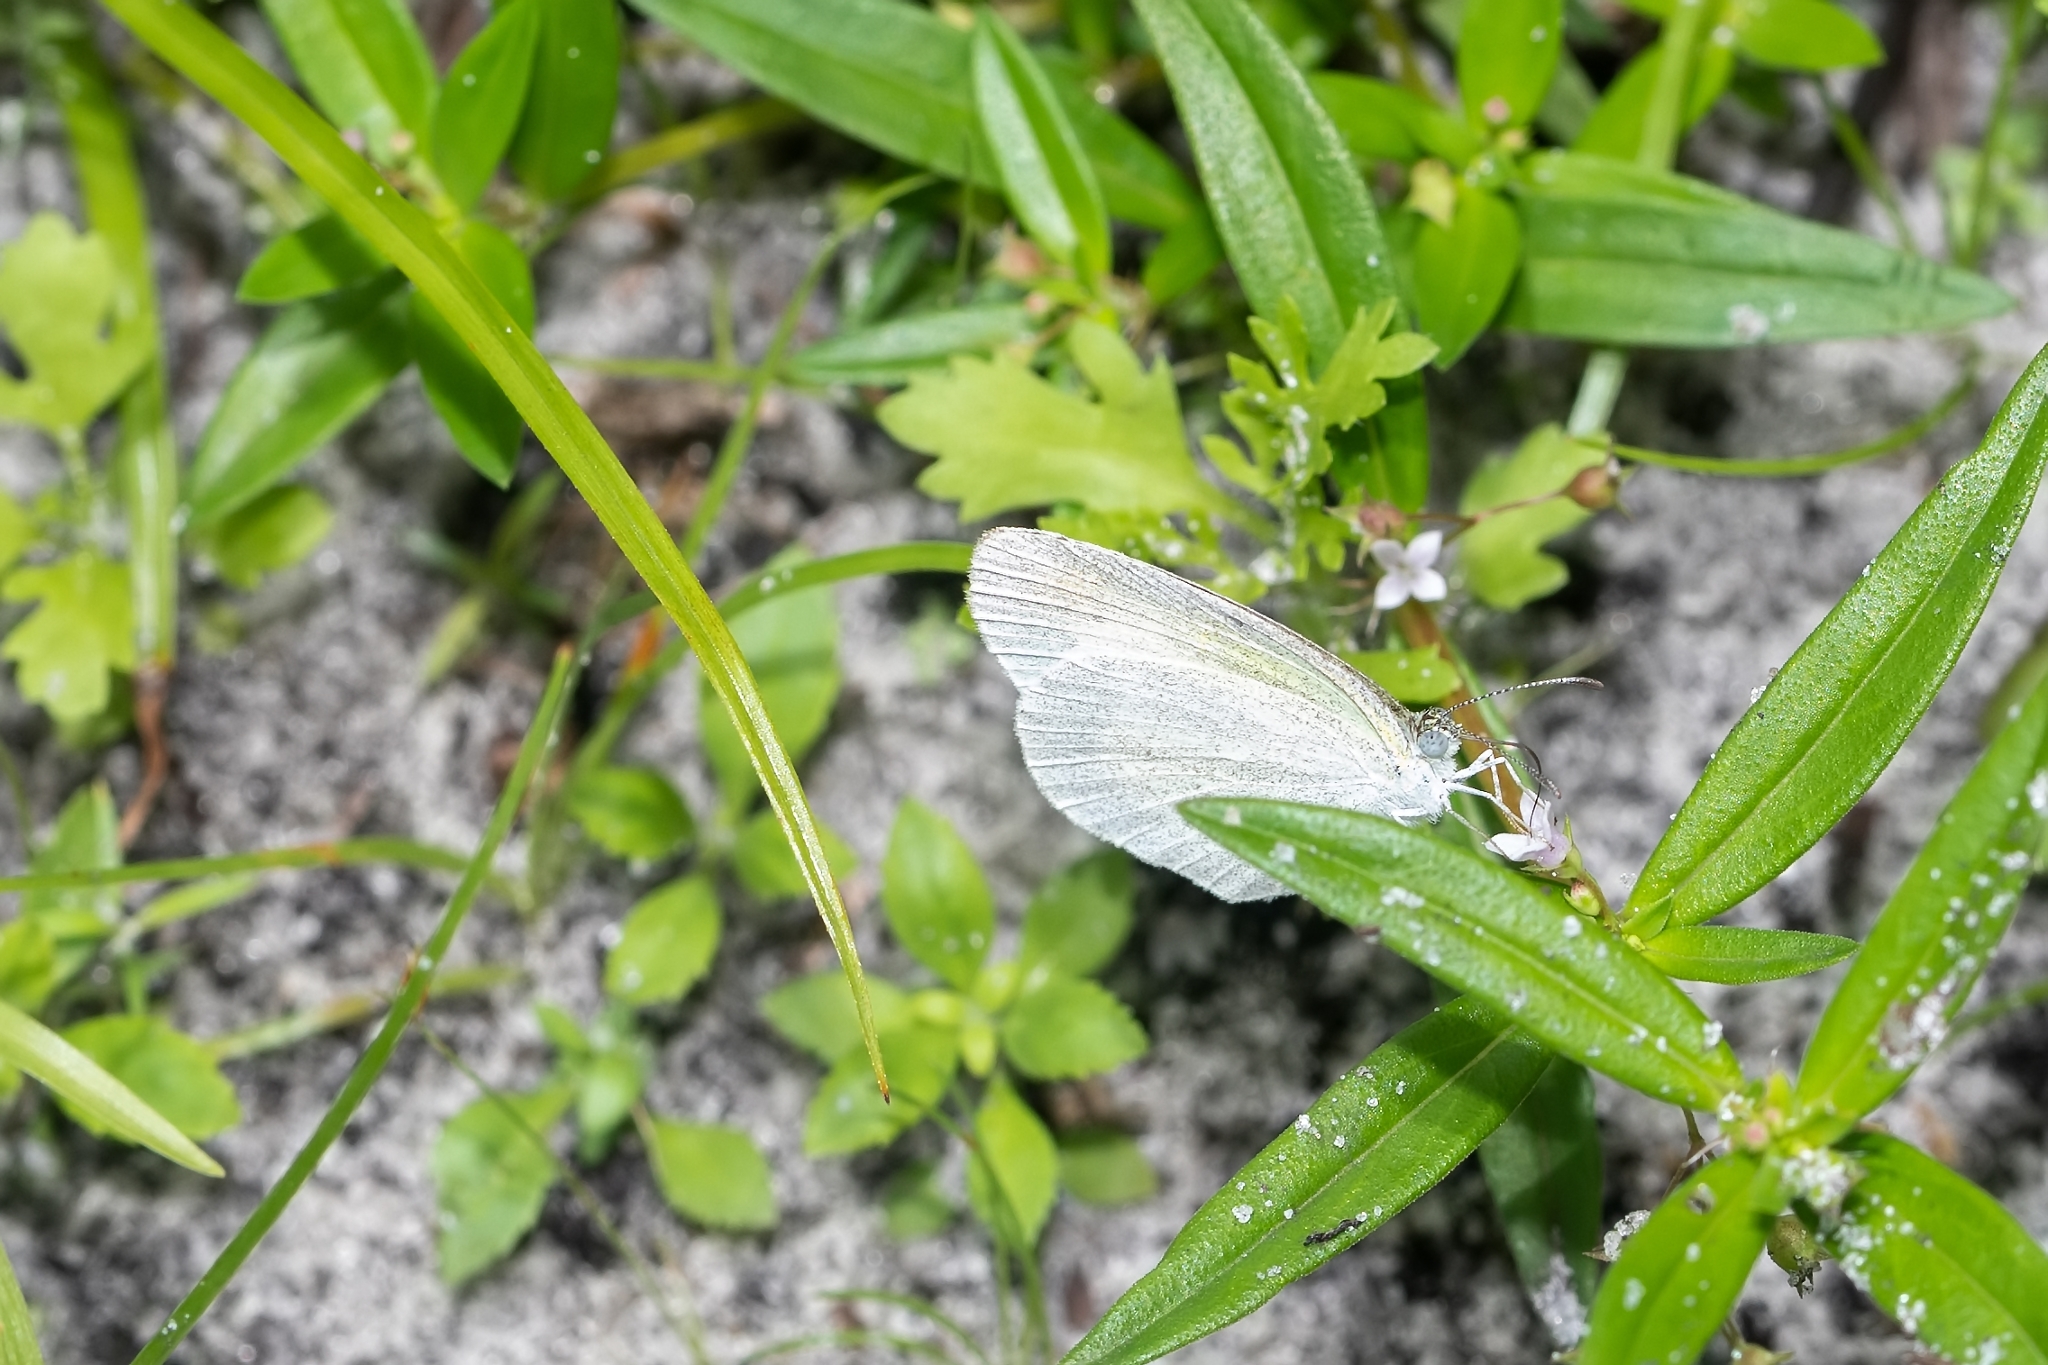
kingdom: Animalia
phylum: Arthropoda
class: Insecta
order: Lepidoptera
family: Pieridae
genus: Eurema
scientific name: Eurema daira
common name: Barred sulphur
